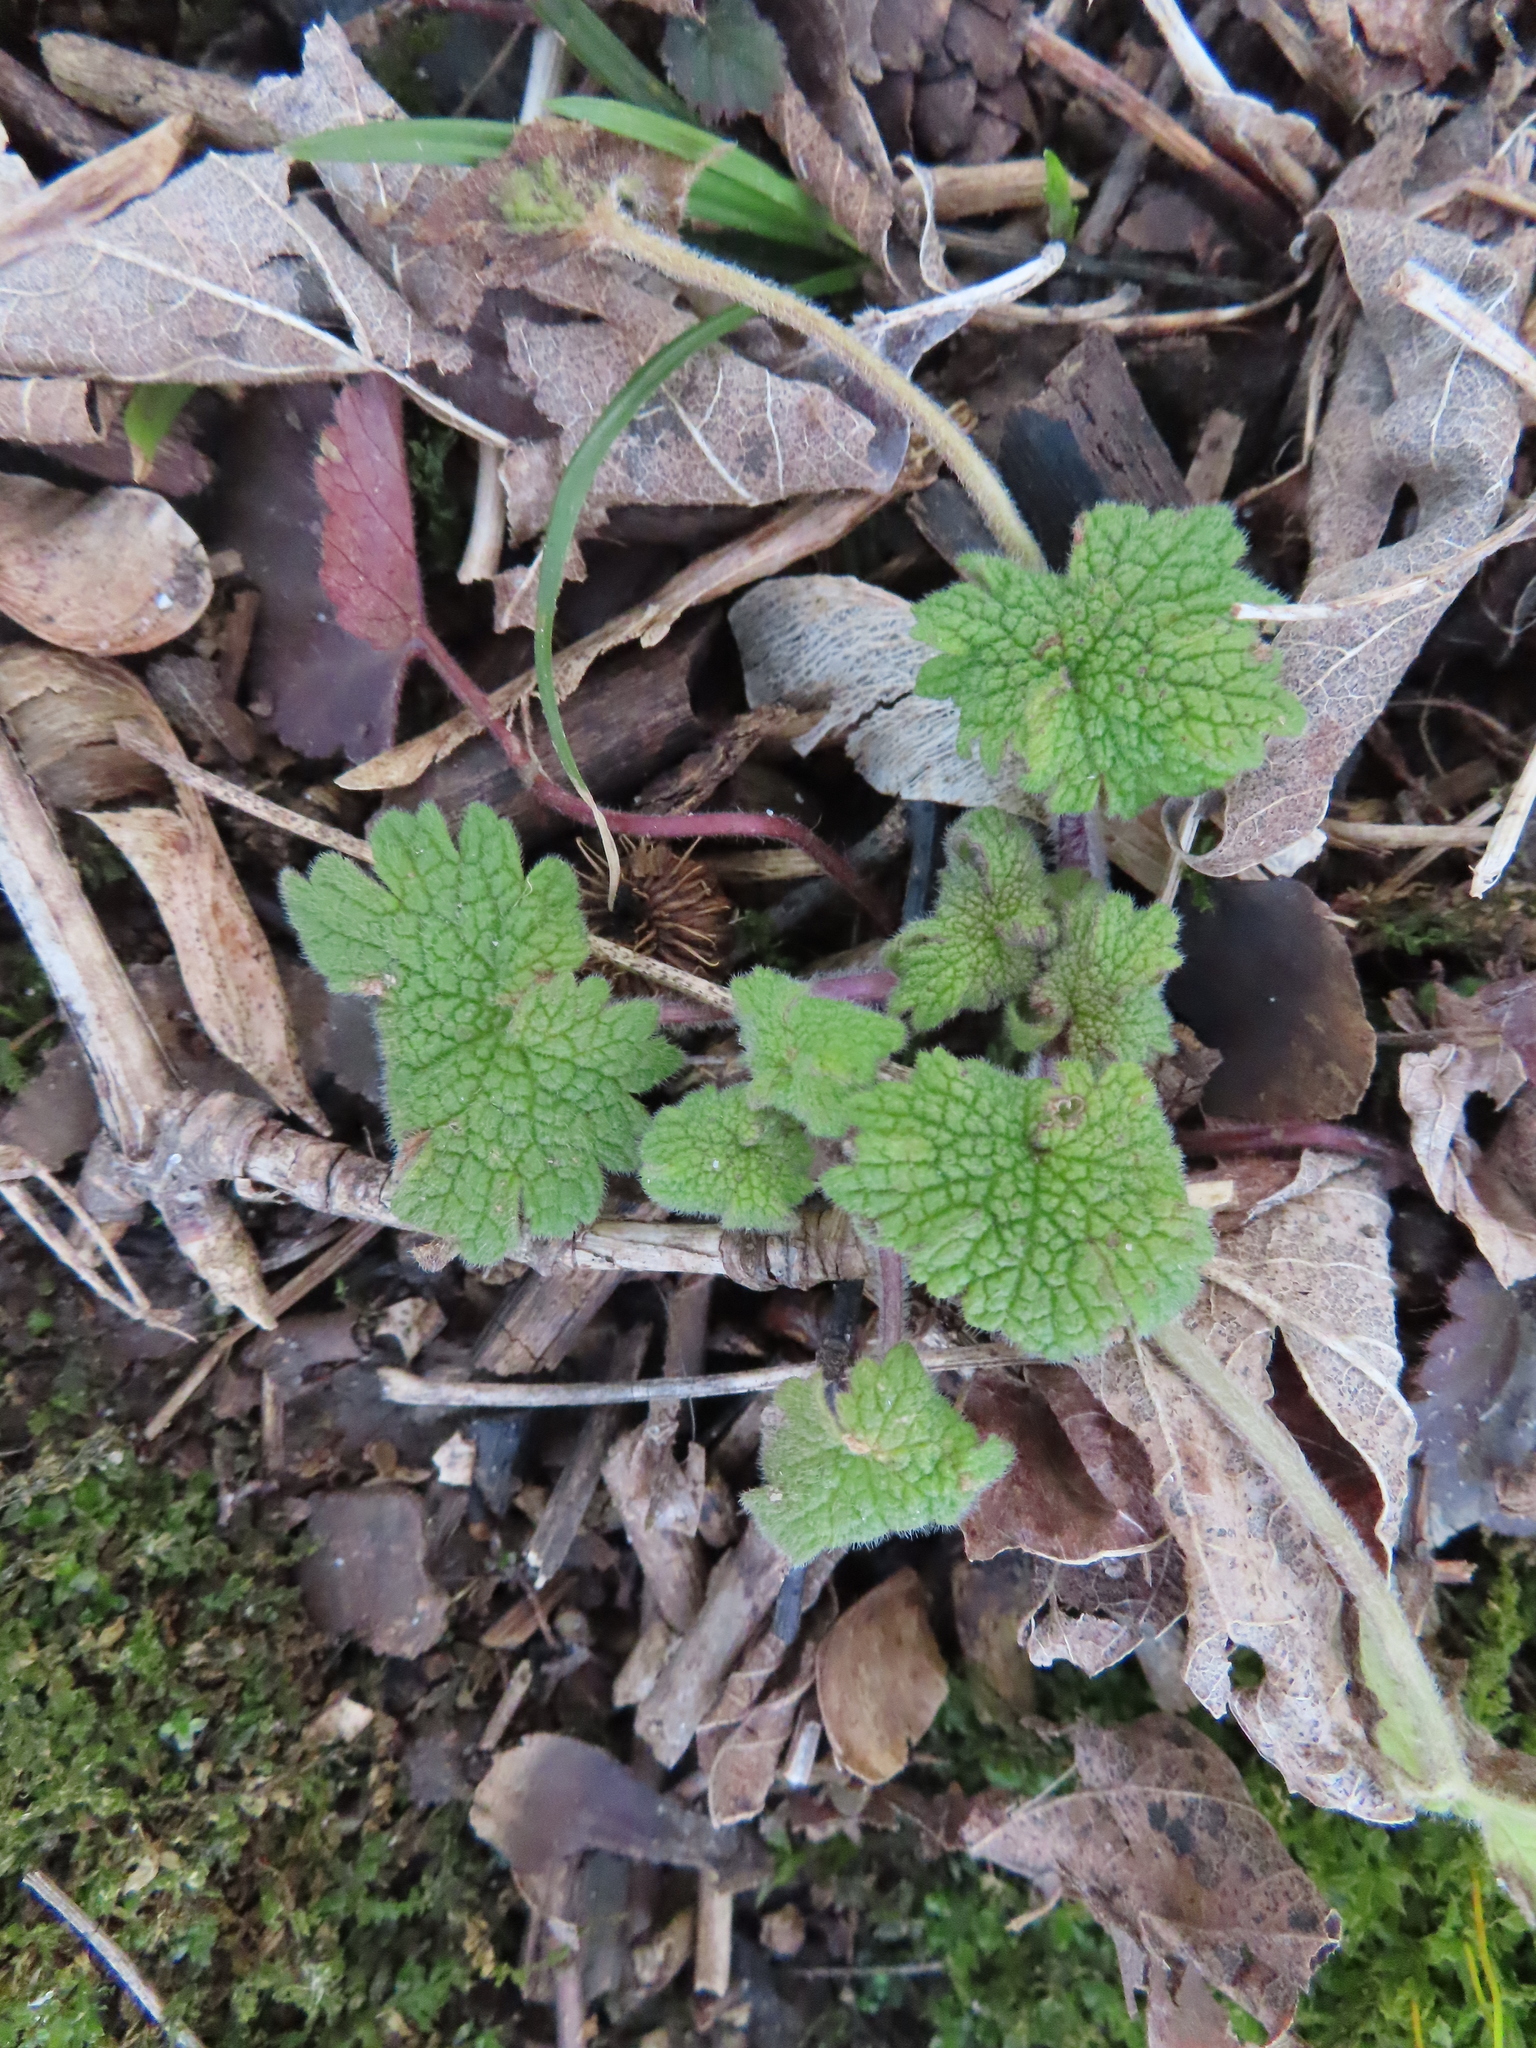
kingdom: Plantae
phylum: Tracheophyta
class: Magnoliopsida
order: Lamiales
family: Lamiaceae
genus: Leonurus
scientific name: Leonurus cardiaca
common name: Motherwort
